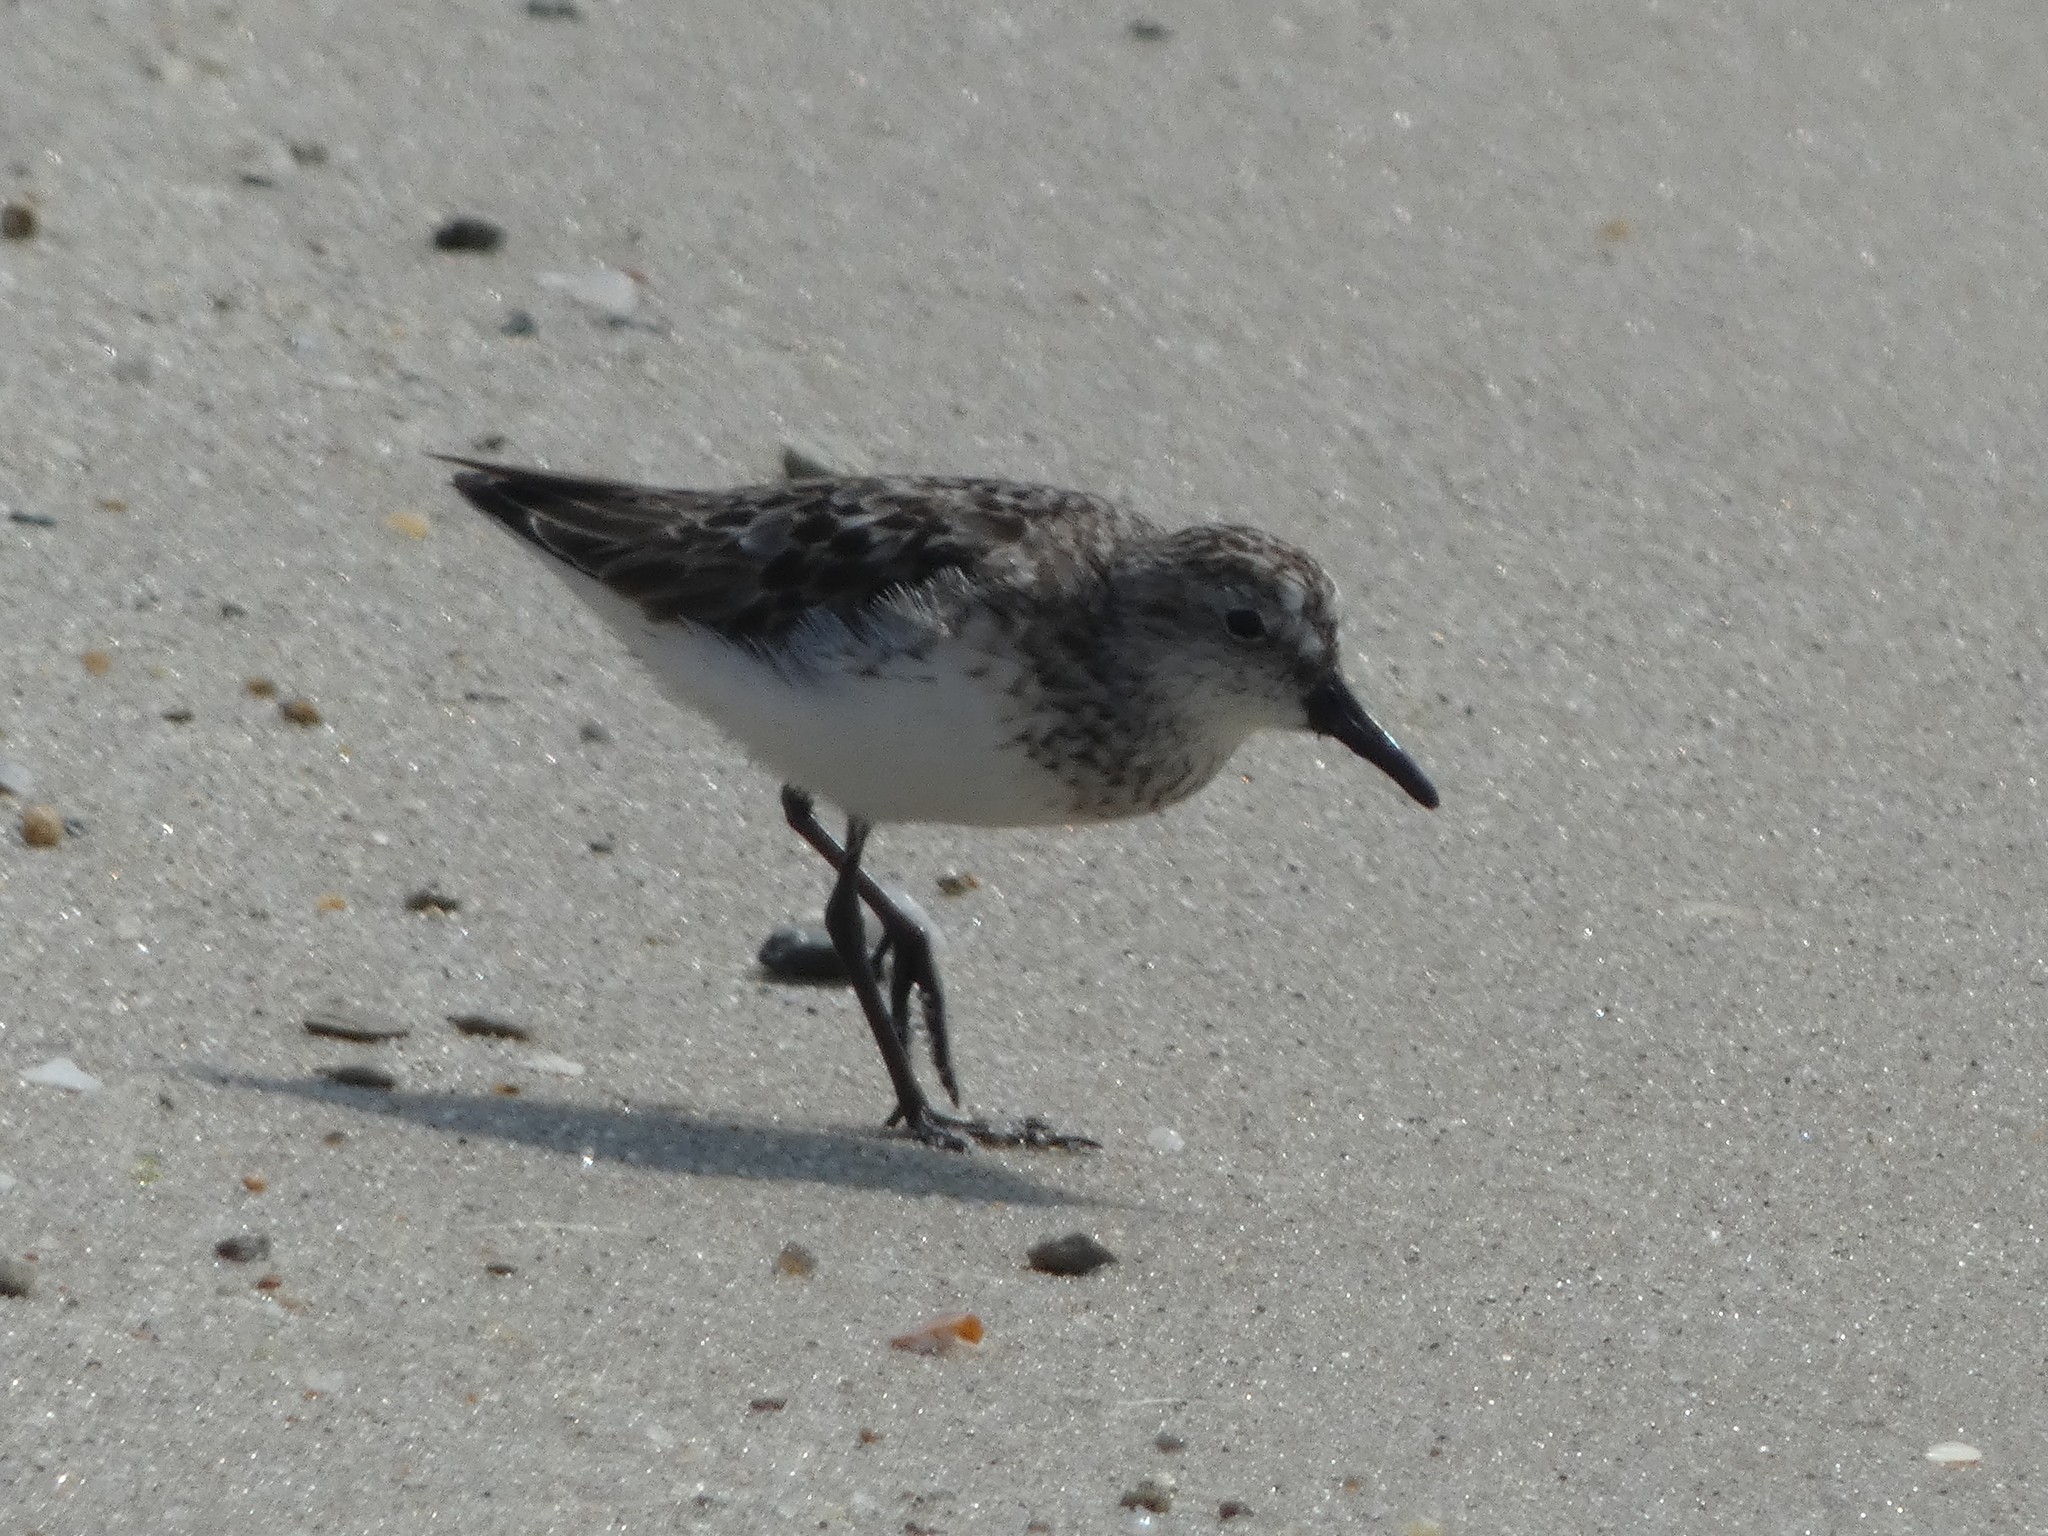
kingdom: Animalia
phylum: Chordata
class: Aves
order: Charadriiformes
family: Scolopacidae
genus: Calidris
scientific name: Calidris pusilla
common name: Semipalmated sandpiper
